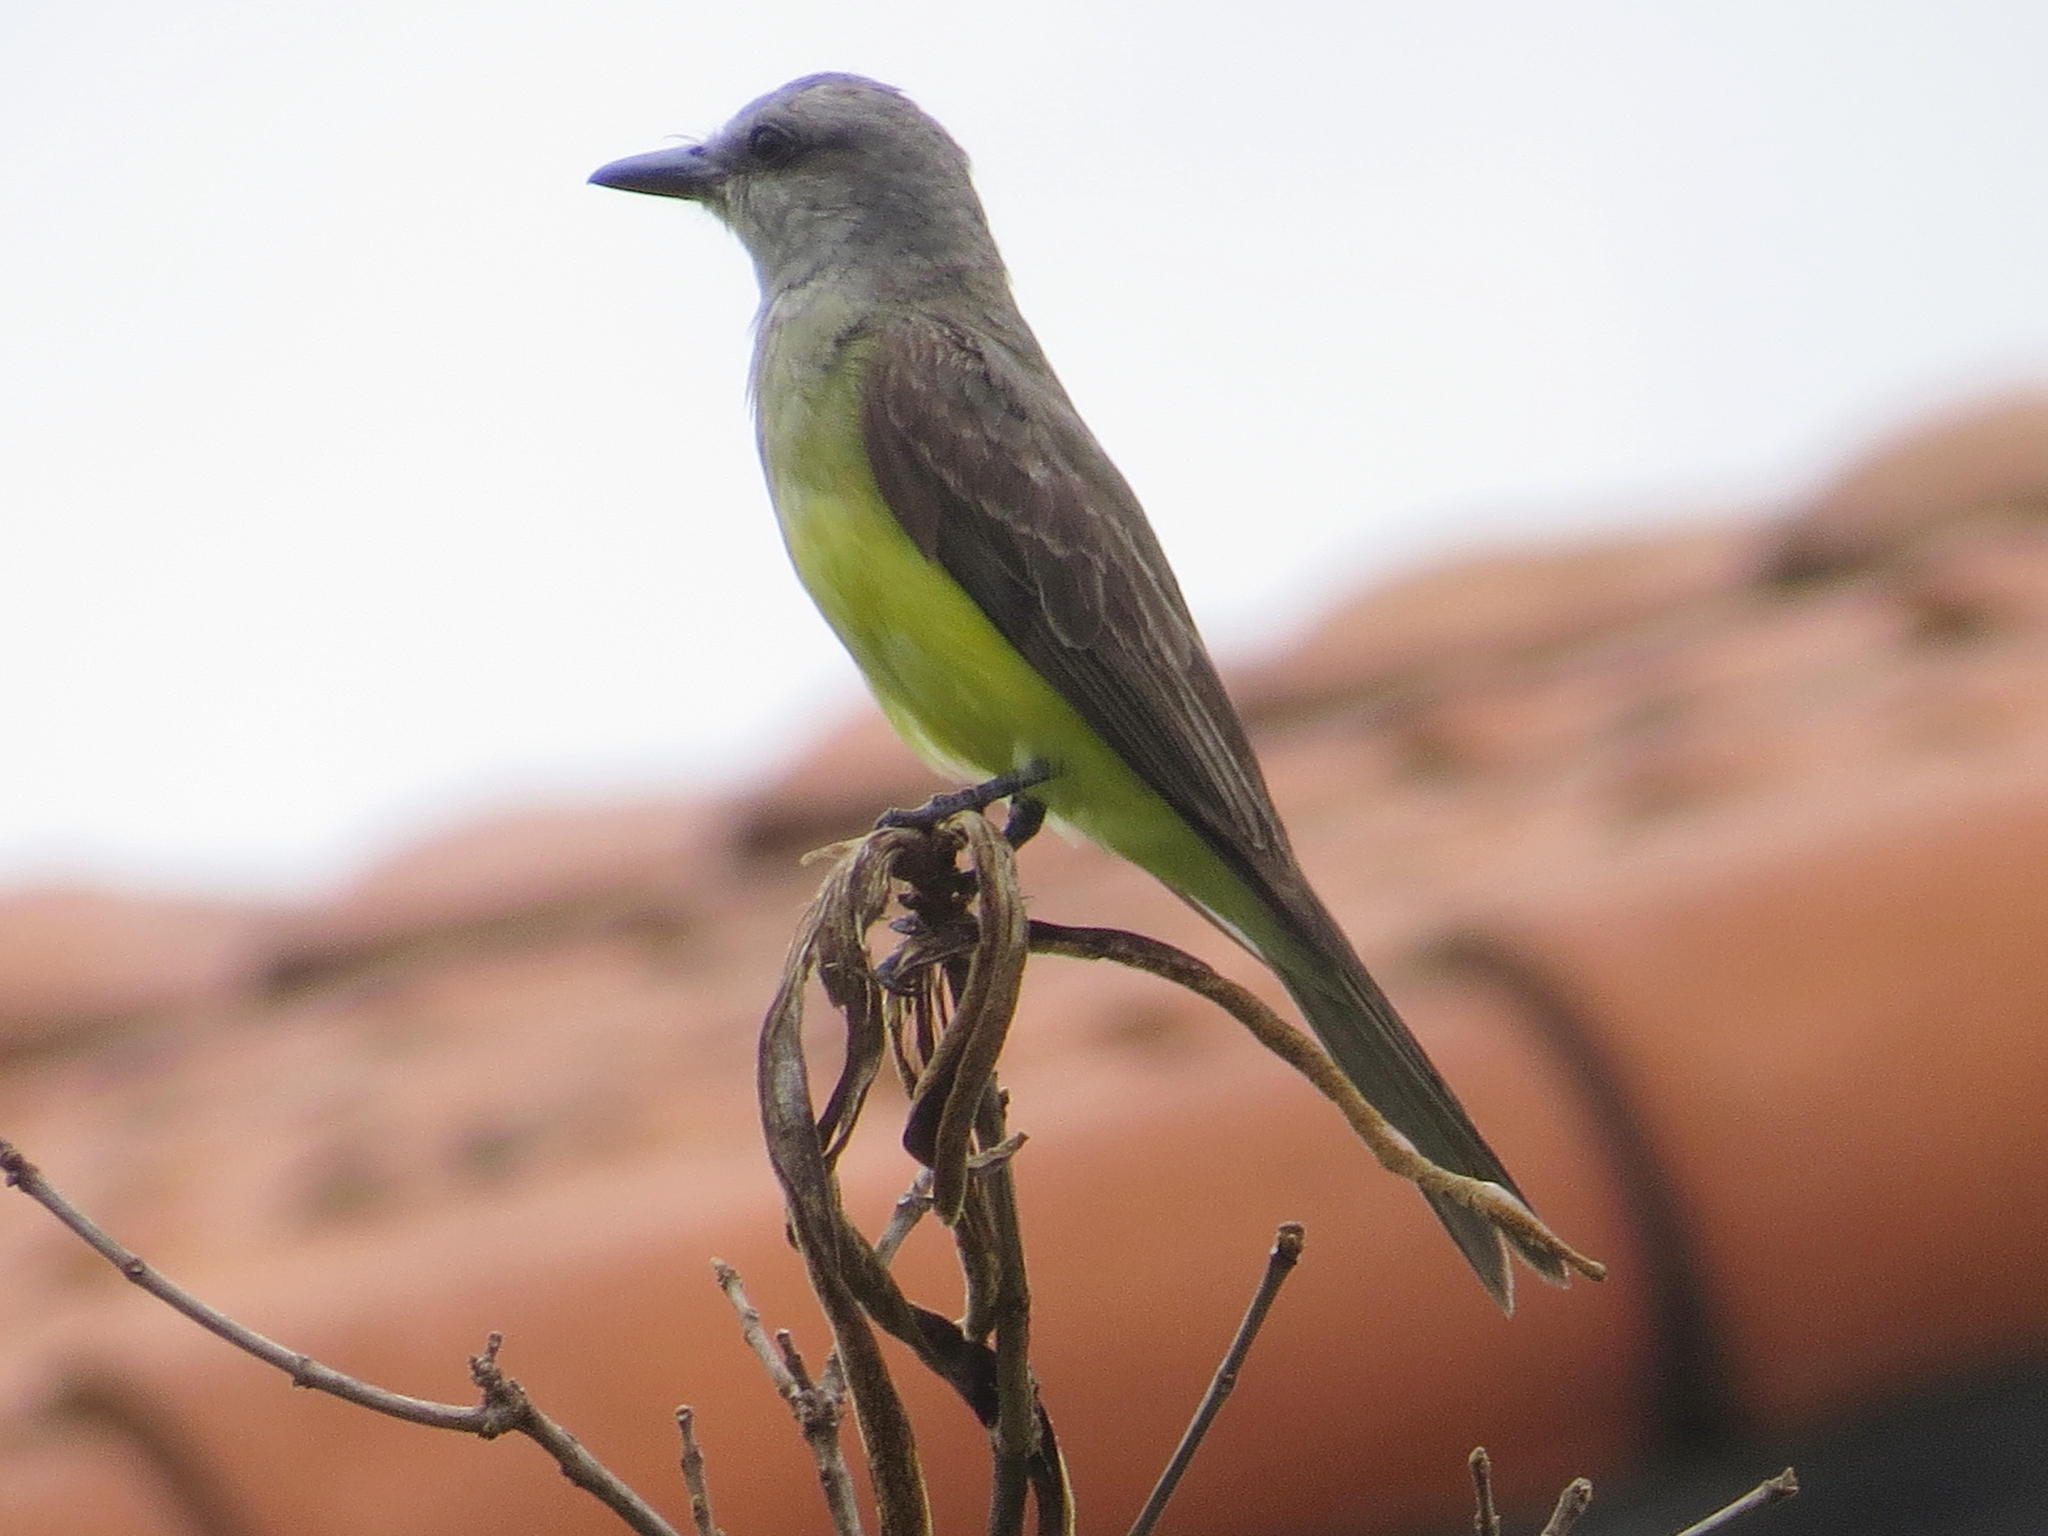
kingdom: Animalia
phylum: Chordata
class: Aves
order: Passeriformes
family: Tyrannidae
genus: Tyrannus
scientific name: Tyrannus melancholicus
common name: Tropical kingbird
